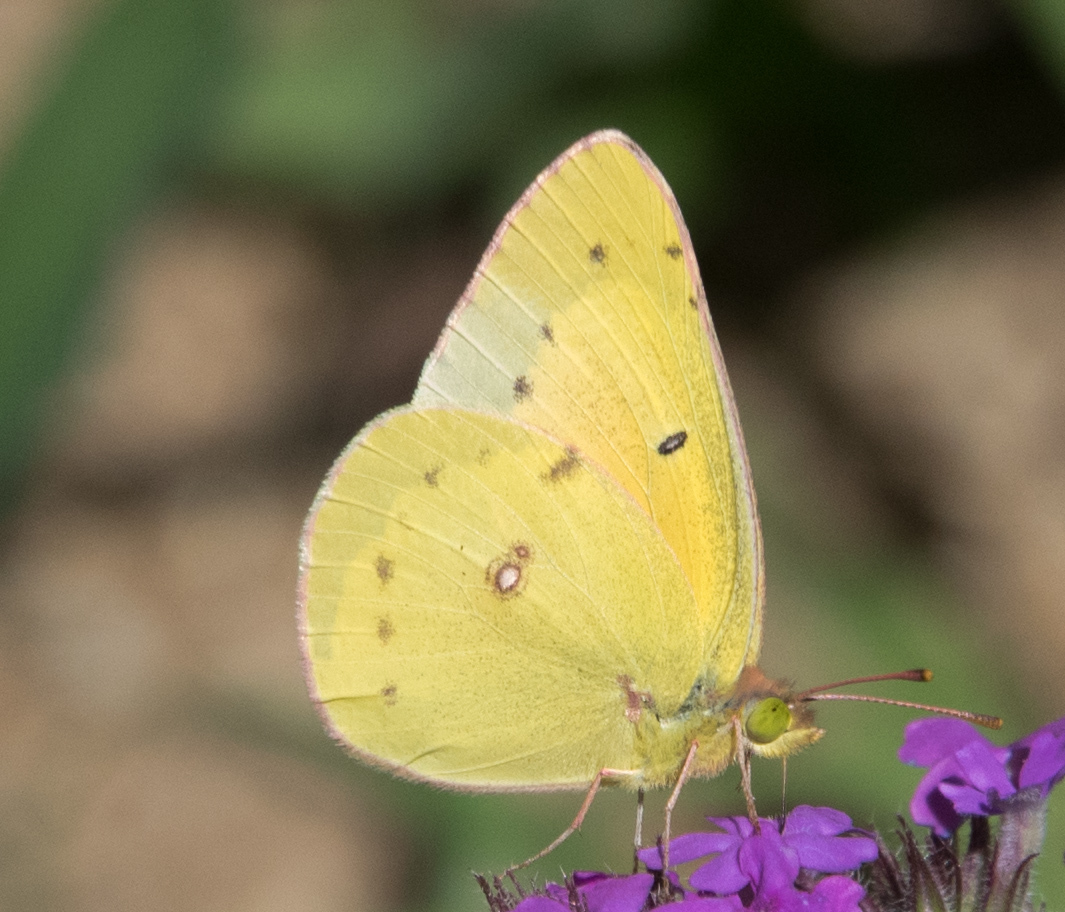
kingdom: Animalia
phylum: Arthropoda
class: Insecta
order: Lepidoptera
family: Pieridae
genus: Colias
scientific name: Colias eurytheme
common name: Alfalfa butterfly
